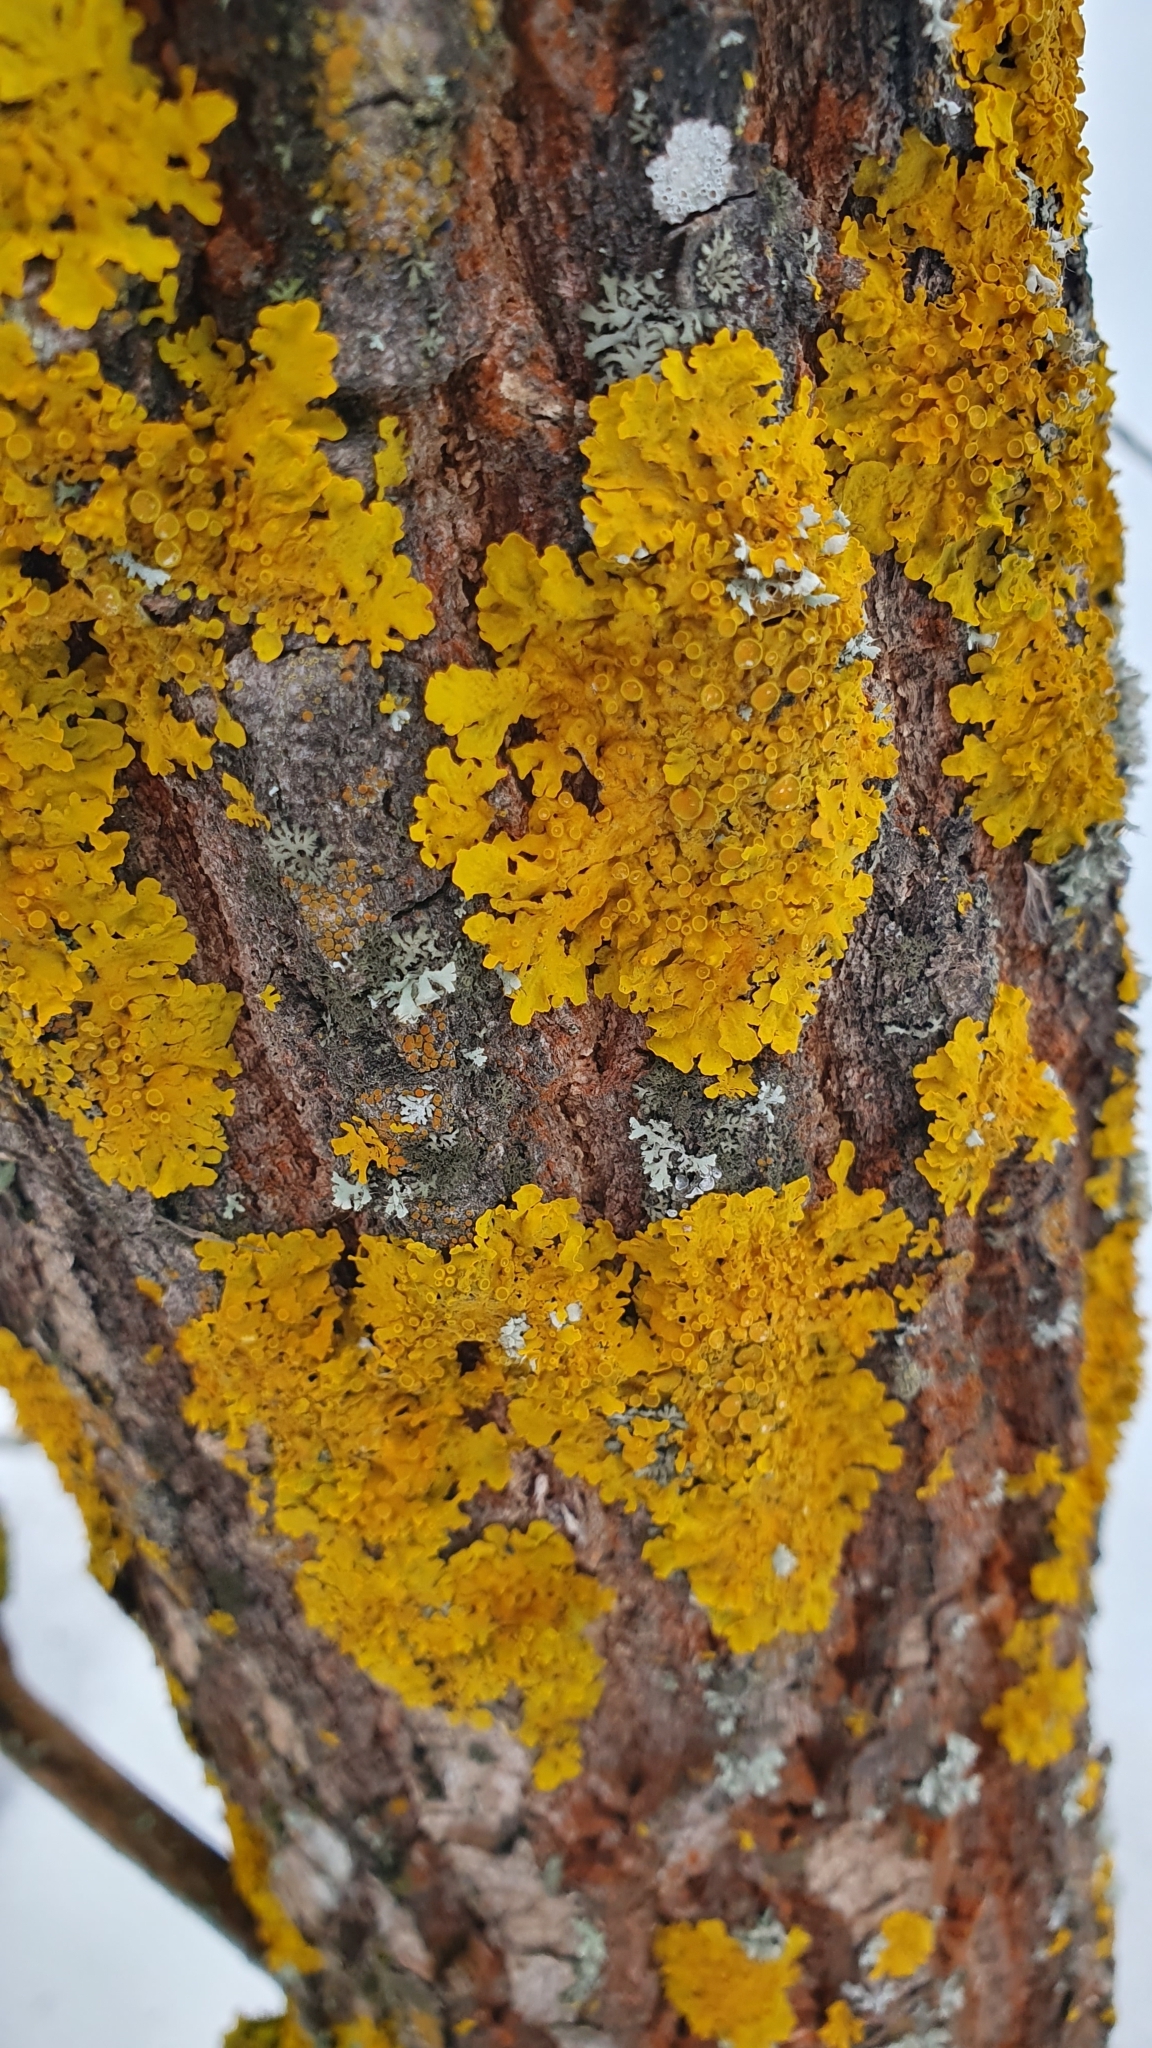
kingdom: Fungi
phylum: Ascomycota
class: Lecanoromycetes
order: Teloschistales
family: Teloschistaceae
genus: Xanthoria
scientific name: Xanthoria parietina
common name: Common orange lichen
